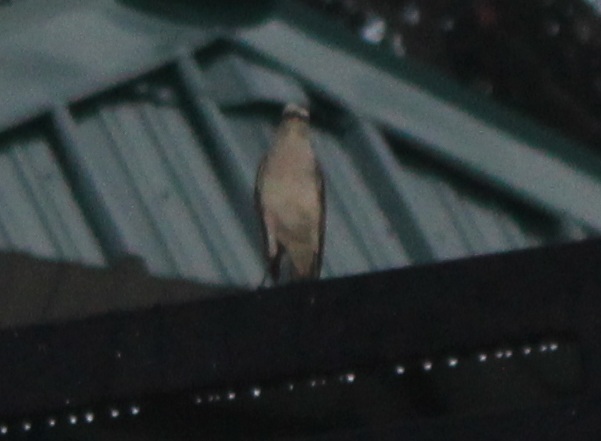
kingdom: Animalia
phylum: Chordata
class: Aves
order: Passeriformes
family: Mimidae
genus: Mimus
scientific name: Mimus gilvus
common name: Tropical mockingbird
